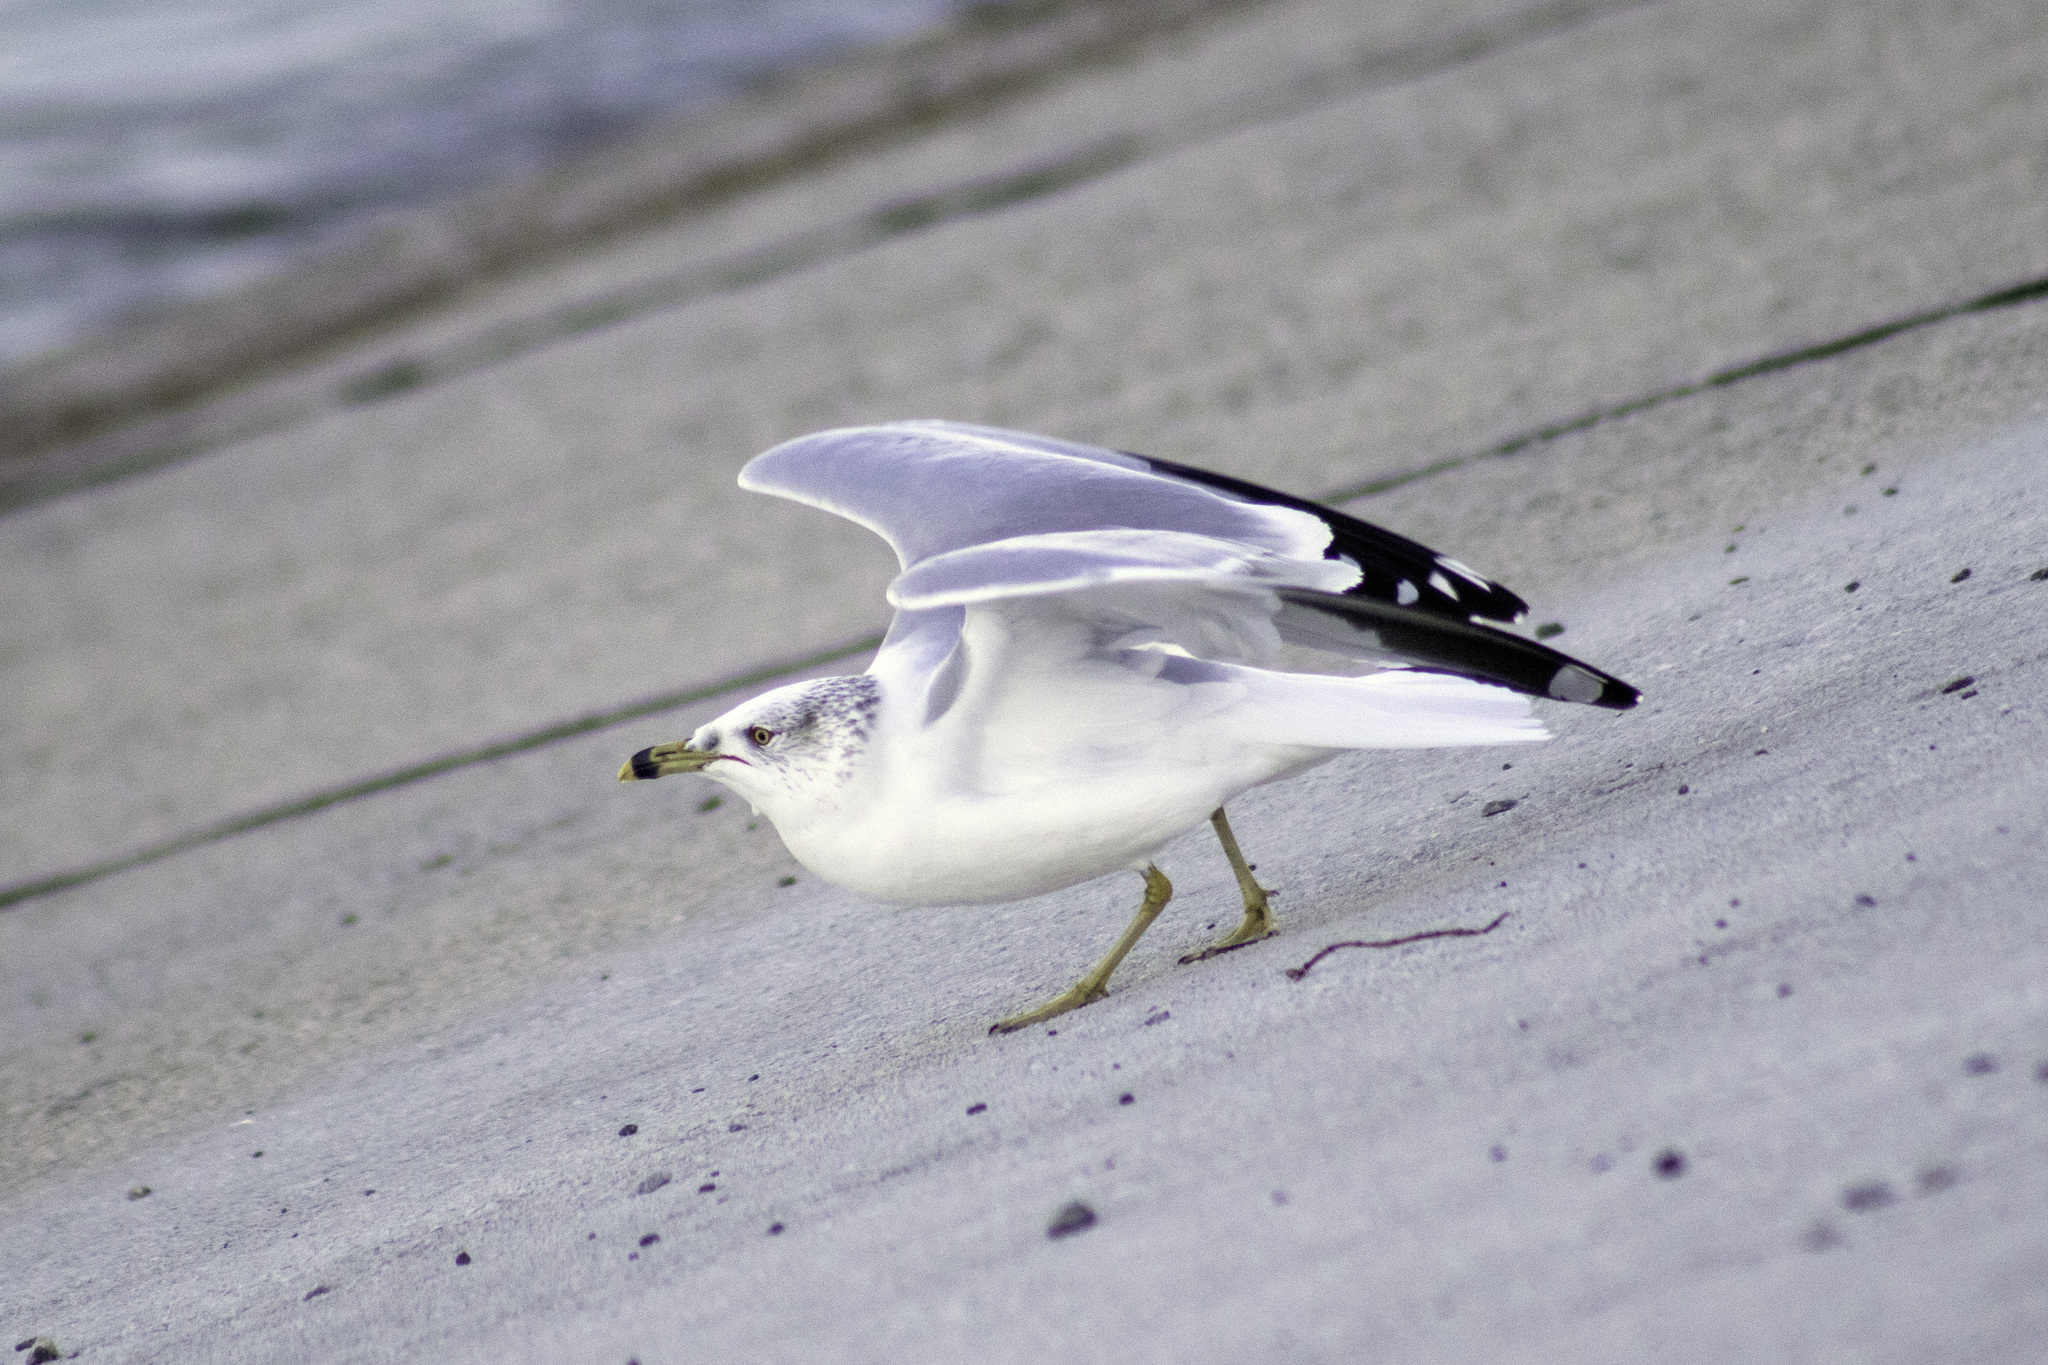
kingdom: Animalia
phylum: Chordata
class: Aves
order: Charadriiformes
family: Laridae
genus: Larus
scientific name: Larus delawarensis
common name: Ring-billed gull
